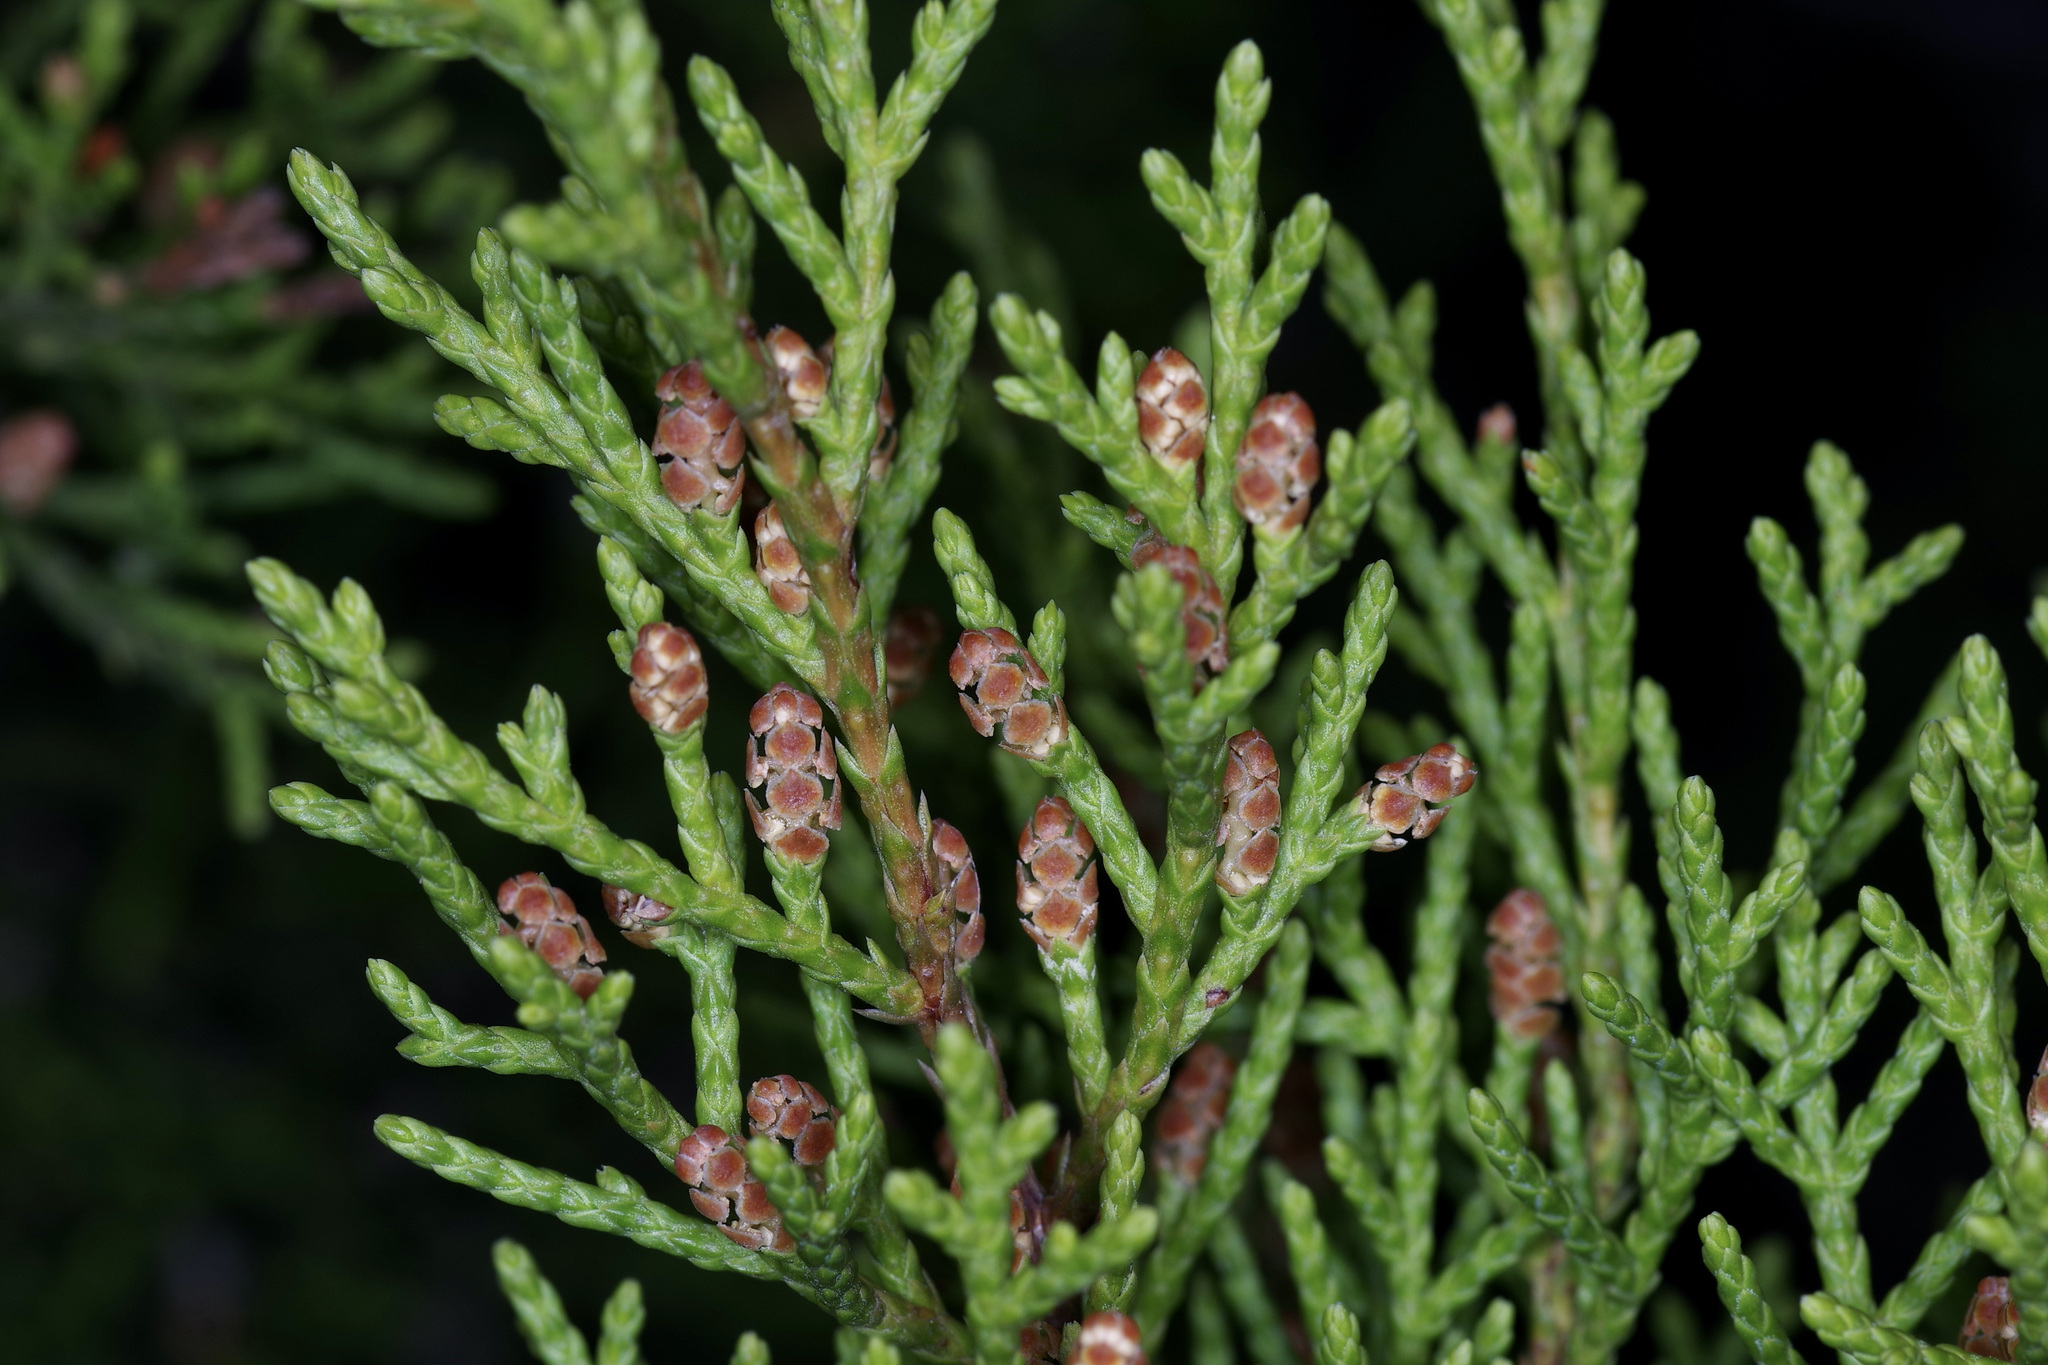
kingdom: Plantae
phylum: Tracheophyta
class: Pinopsida
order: Pinales
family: Cupressaceae
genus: Juniperus
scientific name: Juniperus ashei
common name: Mexican juniper
